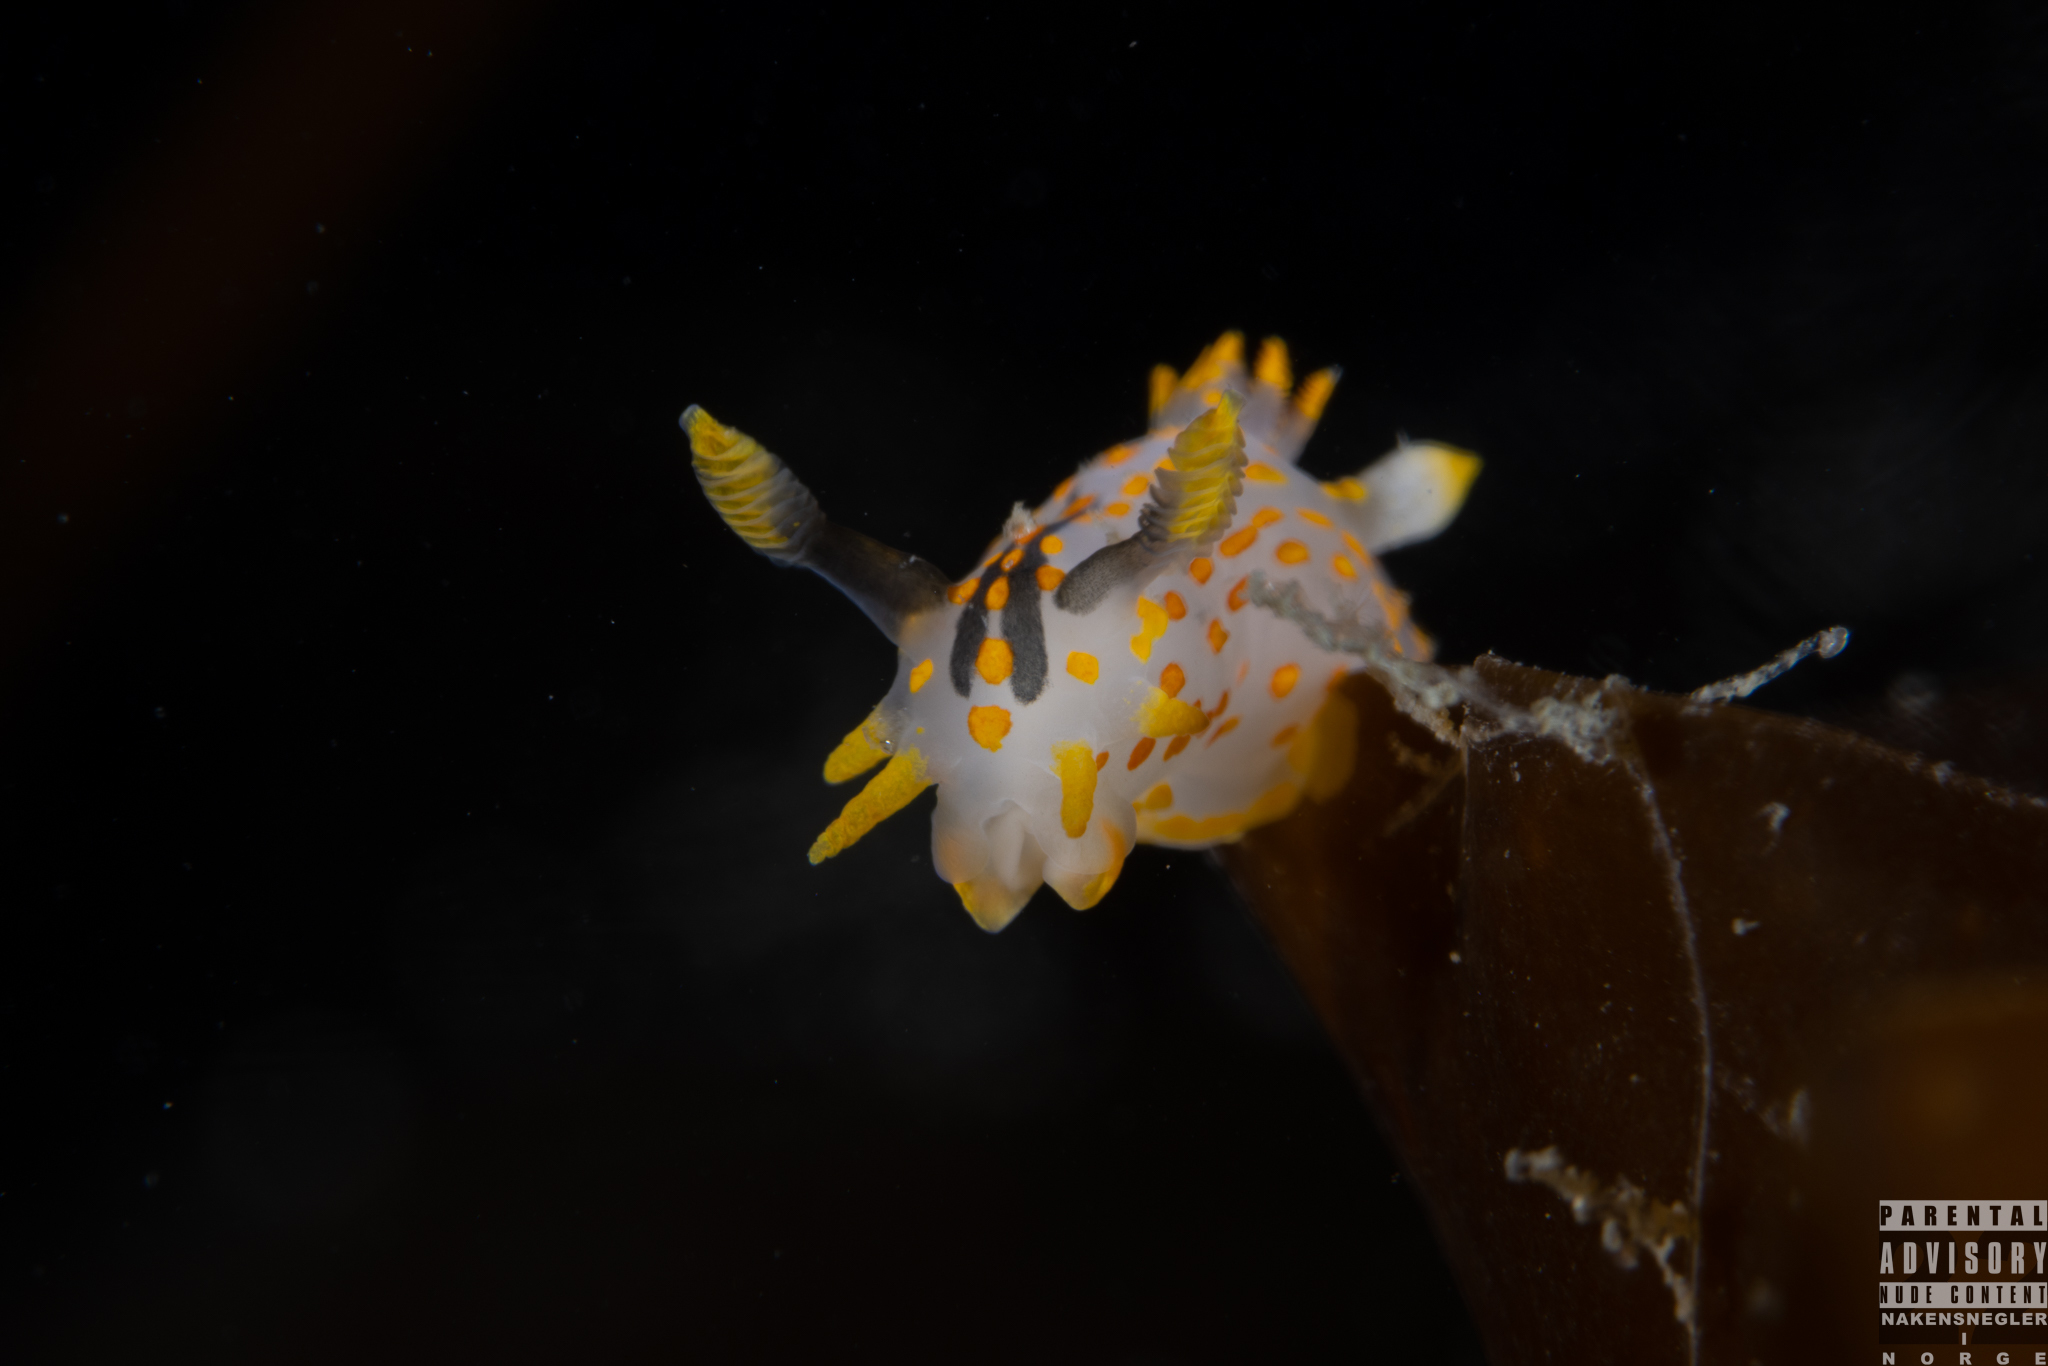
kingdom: Animalia
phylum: Mollusca
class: Gastropoda
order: Nudibranchia
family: Polyceridae
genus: Polycera
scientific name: Polycera quadrilineata
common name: Four-striped polycera
